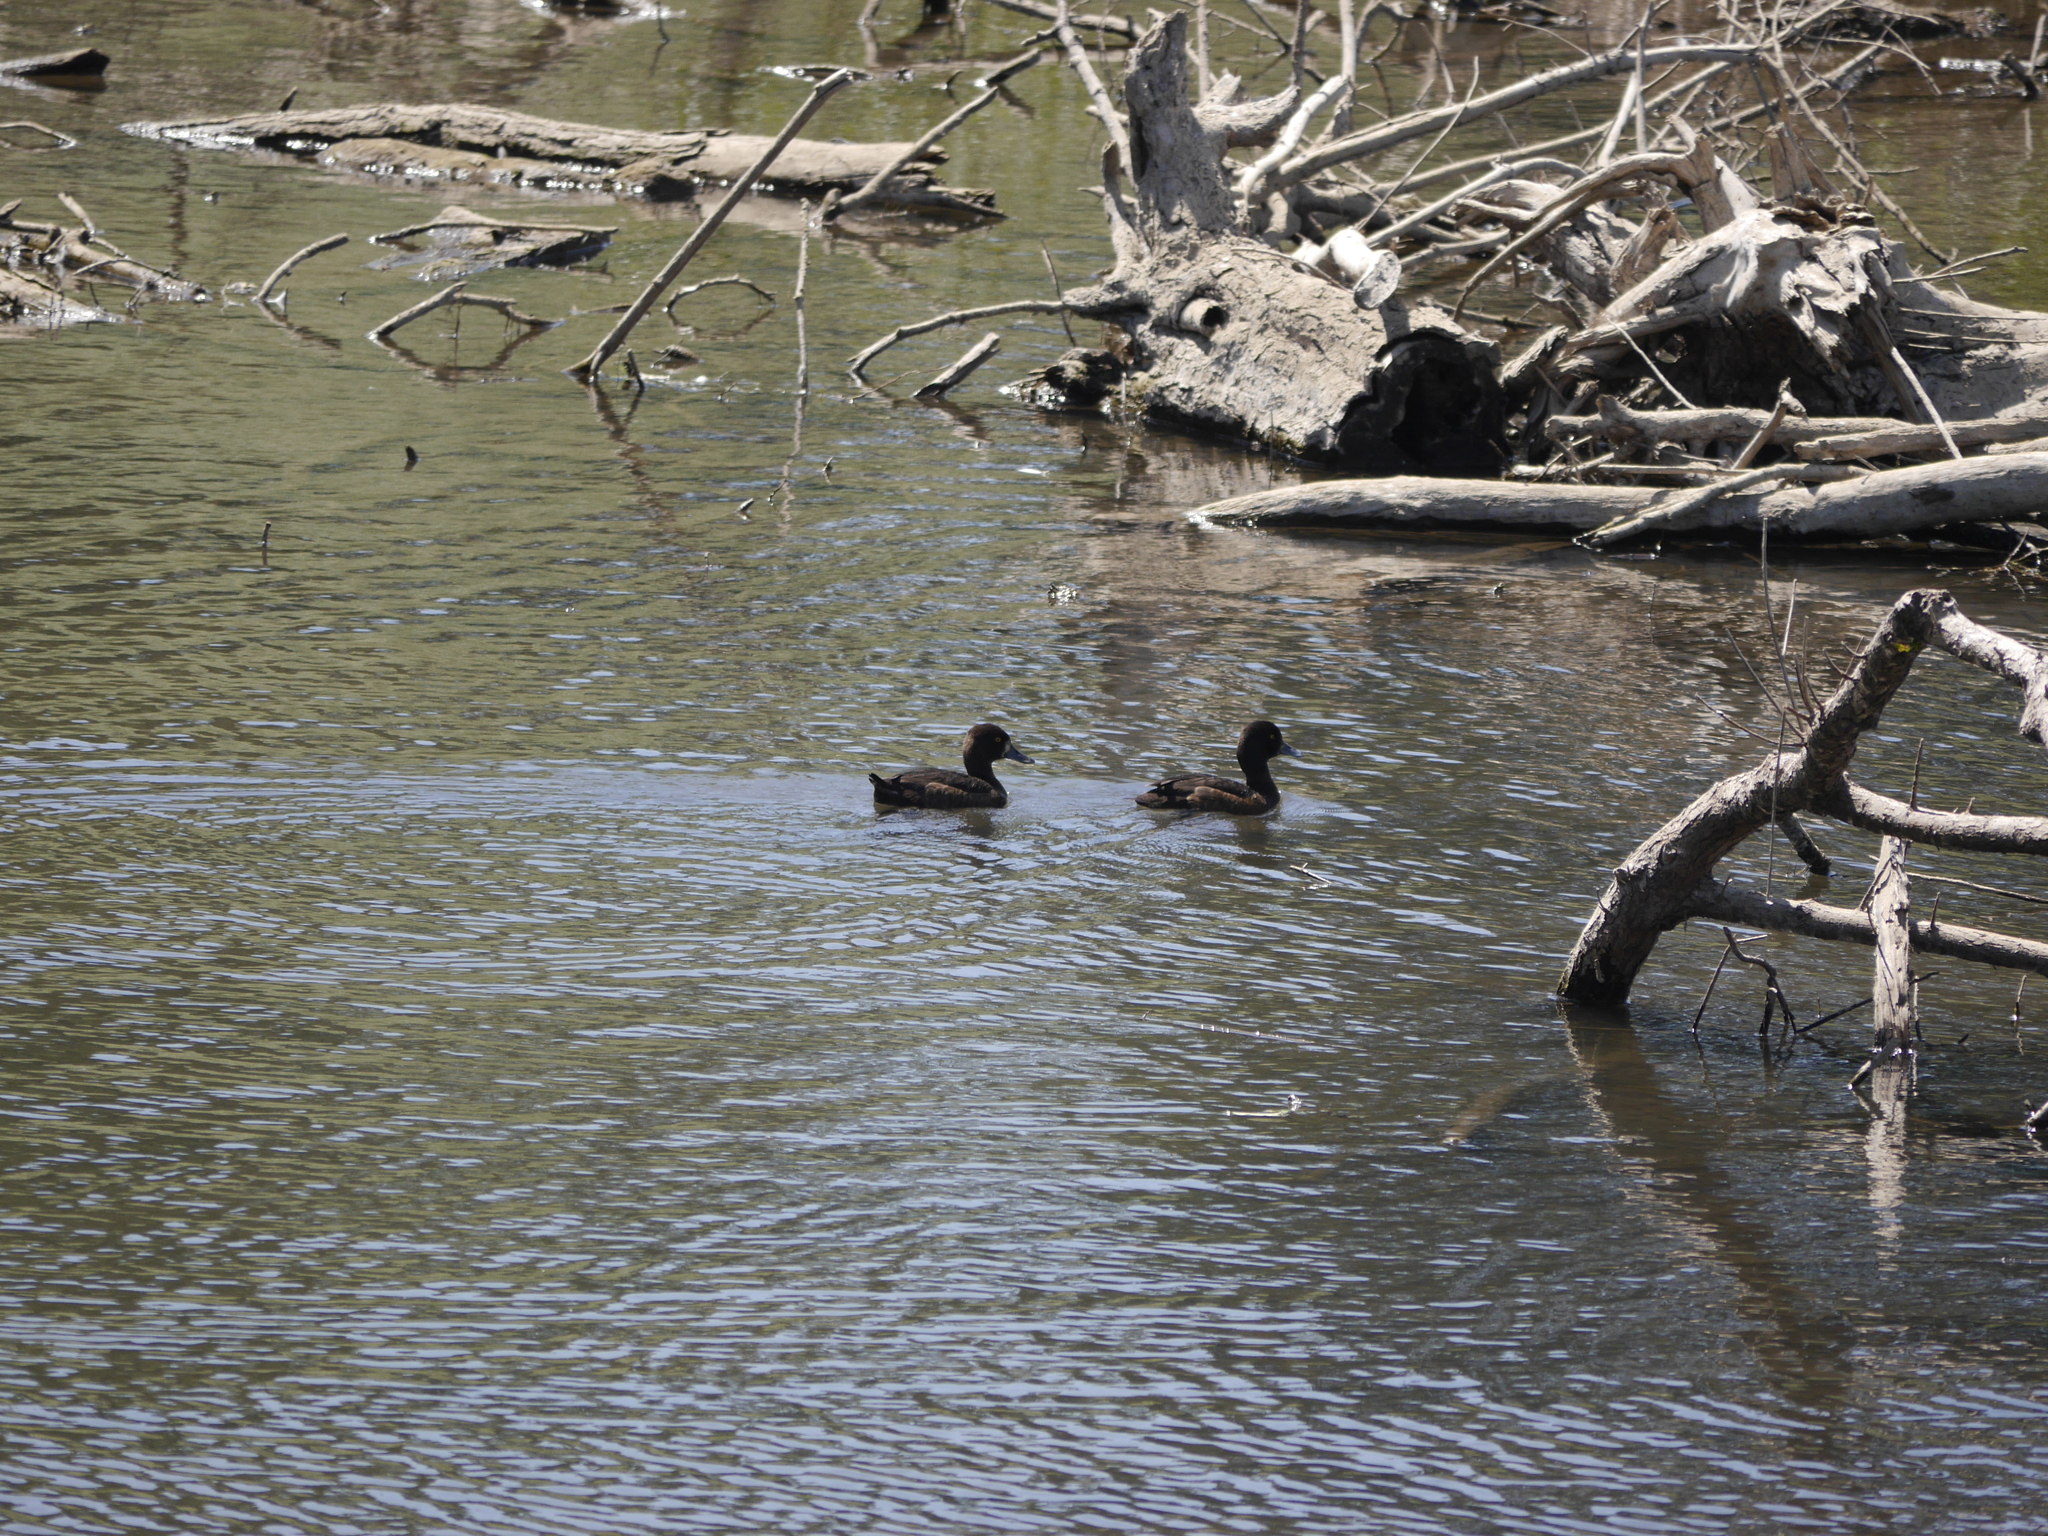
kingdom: Animalia
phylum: Chordata
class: Aves
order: Anseriformes
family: Anatidae
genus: Aythya
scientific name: Aythya fuligula
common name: Tufted duck
